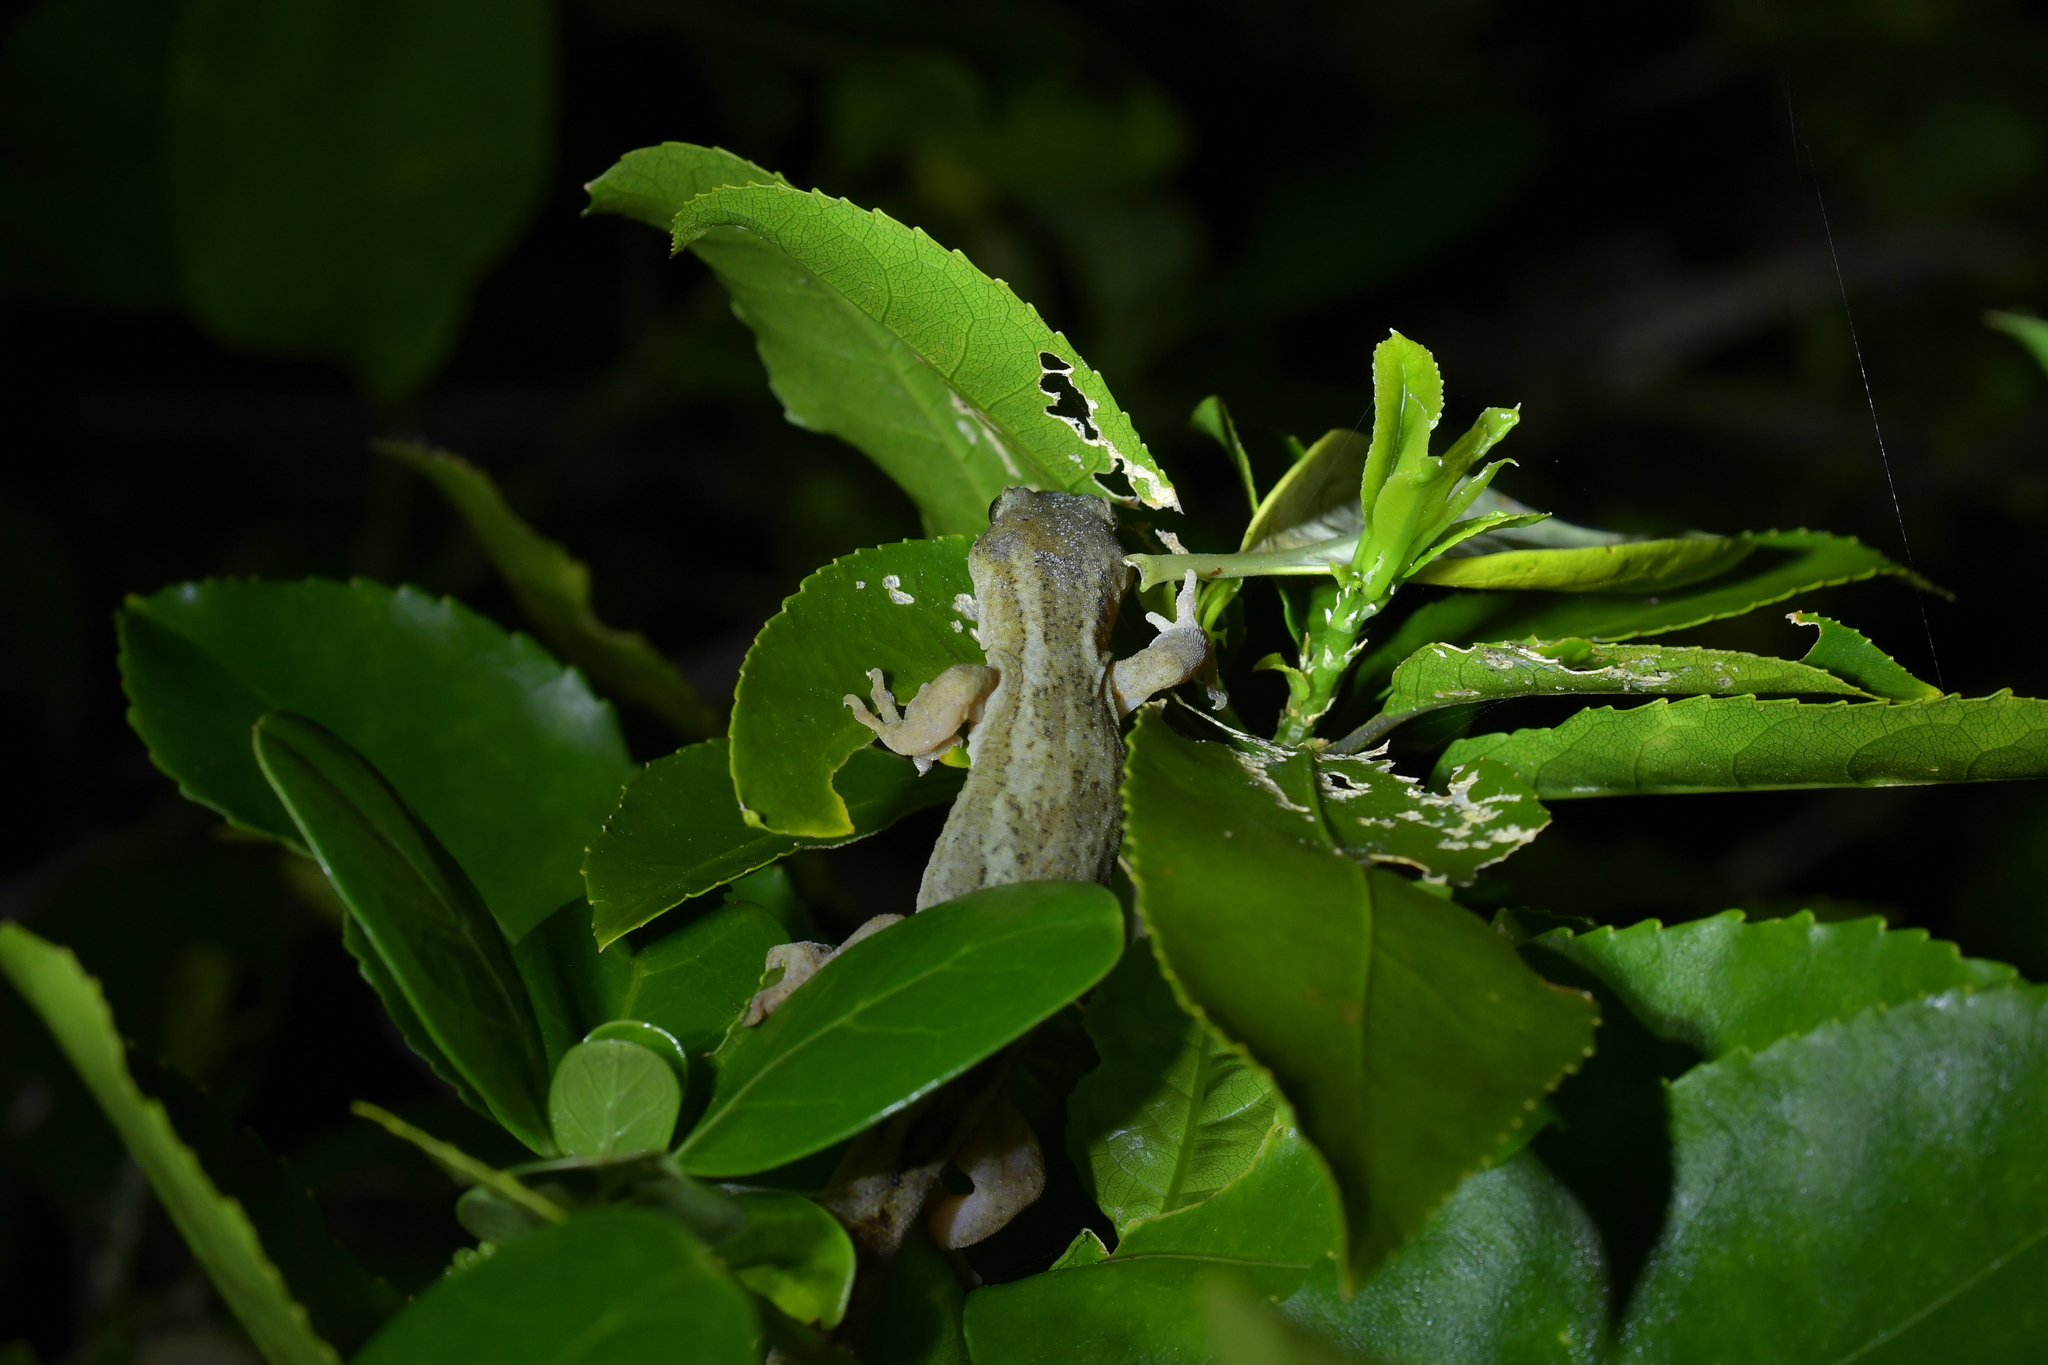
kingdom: Animalia
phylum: Chordata
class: Squamata
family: Diplodactylidae
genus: Woodworthia
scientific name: Woodworthia maculata
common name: Raukawa gecko
